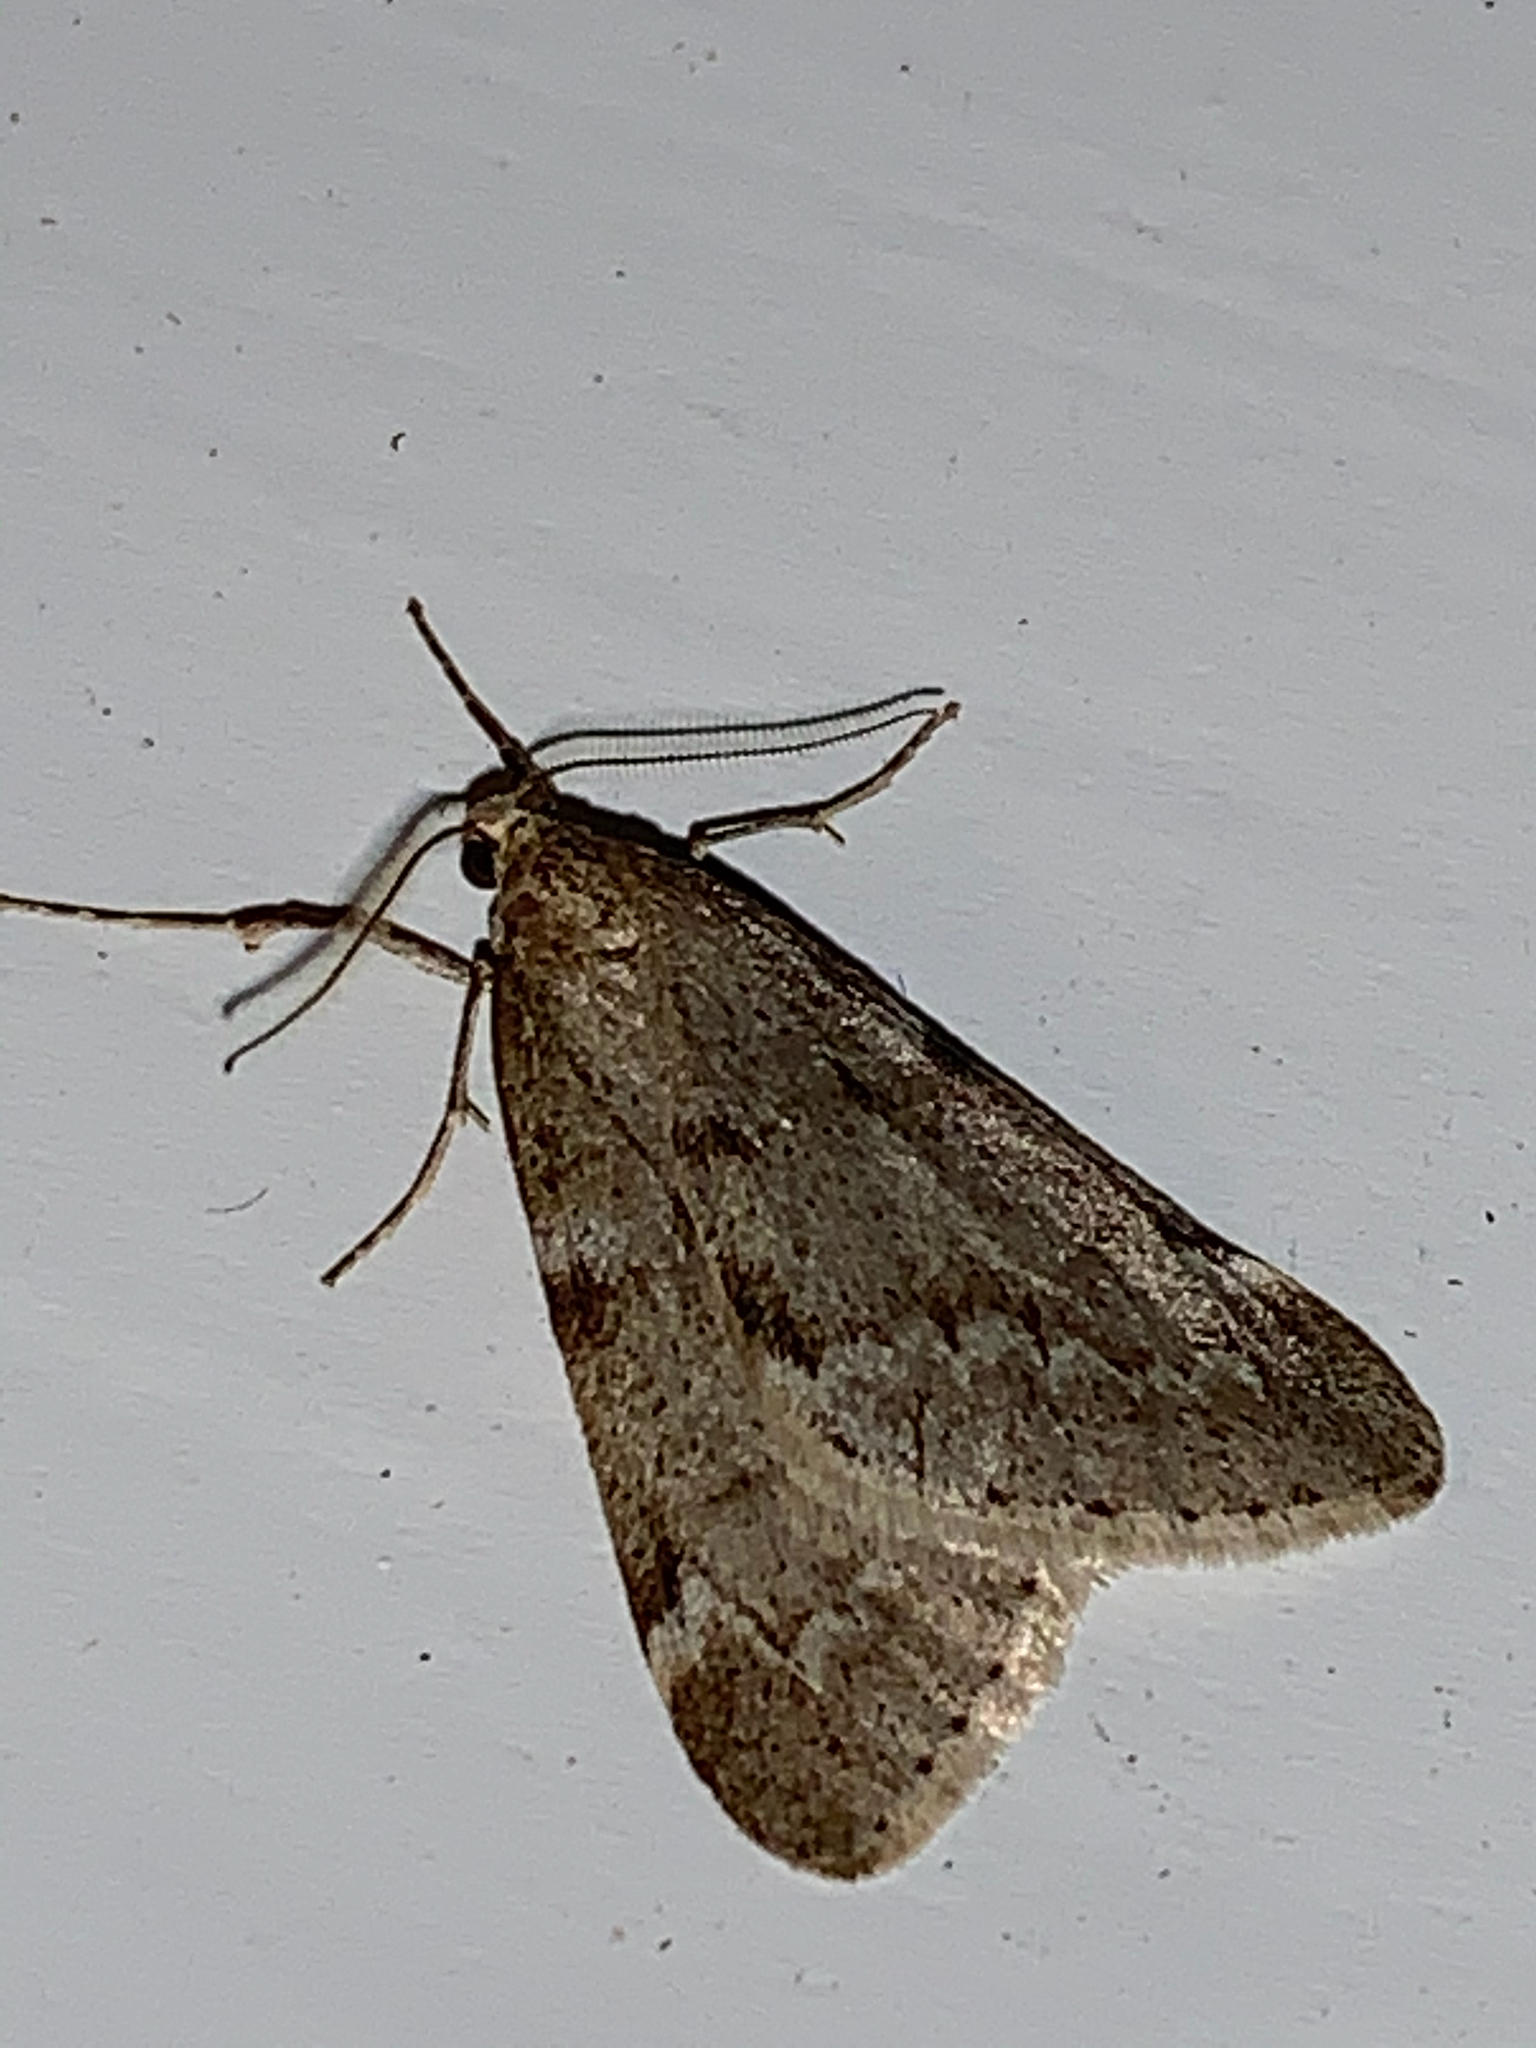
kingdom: Animalia
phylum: Arthropoda
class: Insecta
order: Lepidoptera
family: Geometridae
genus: Alsophila
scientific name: Alsophila pometaria
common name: Fall cankerworm
